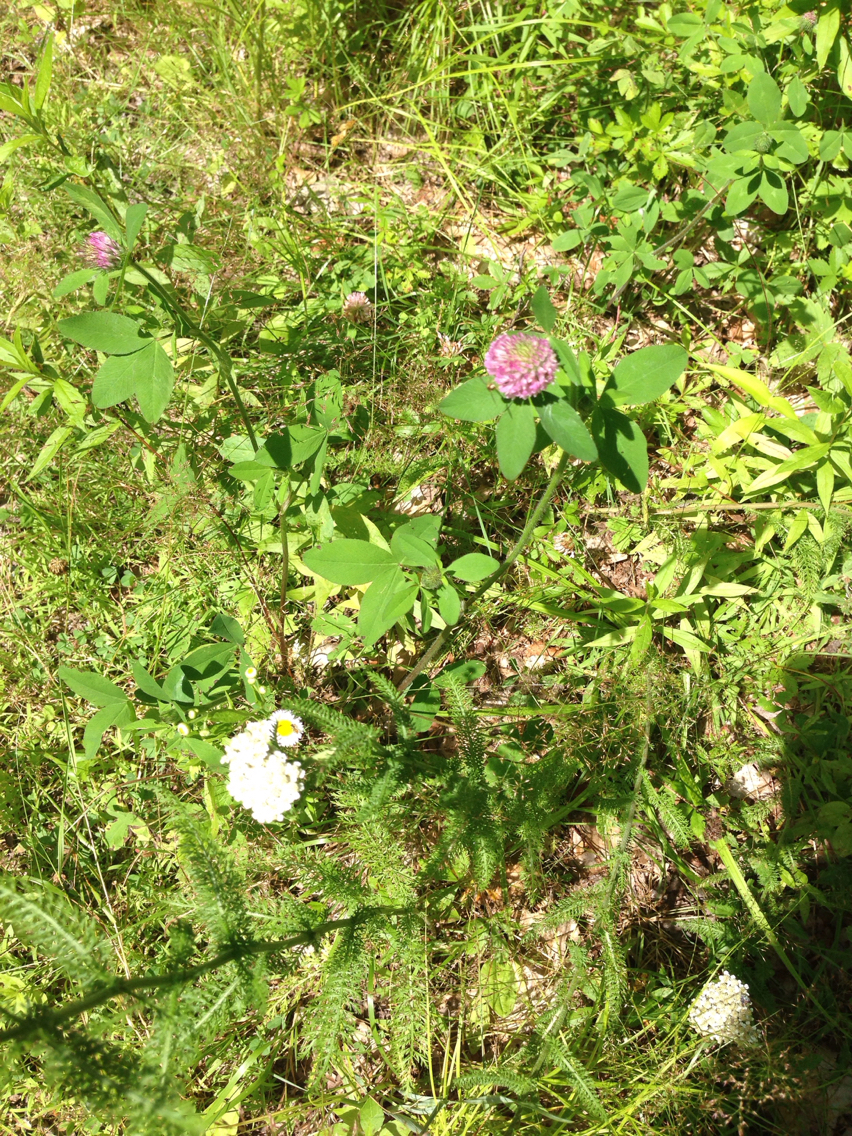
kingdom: Plantae
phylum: Tracheophyta
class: Magnoliopsida
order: Fabales
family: Fabaceae
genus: Trifolium
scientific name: Trifolium pratense
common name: Red clover
